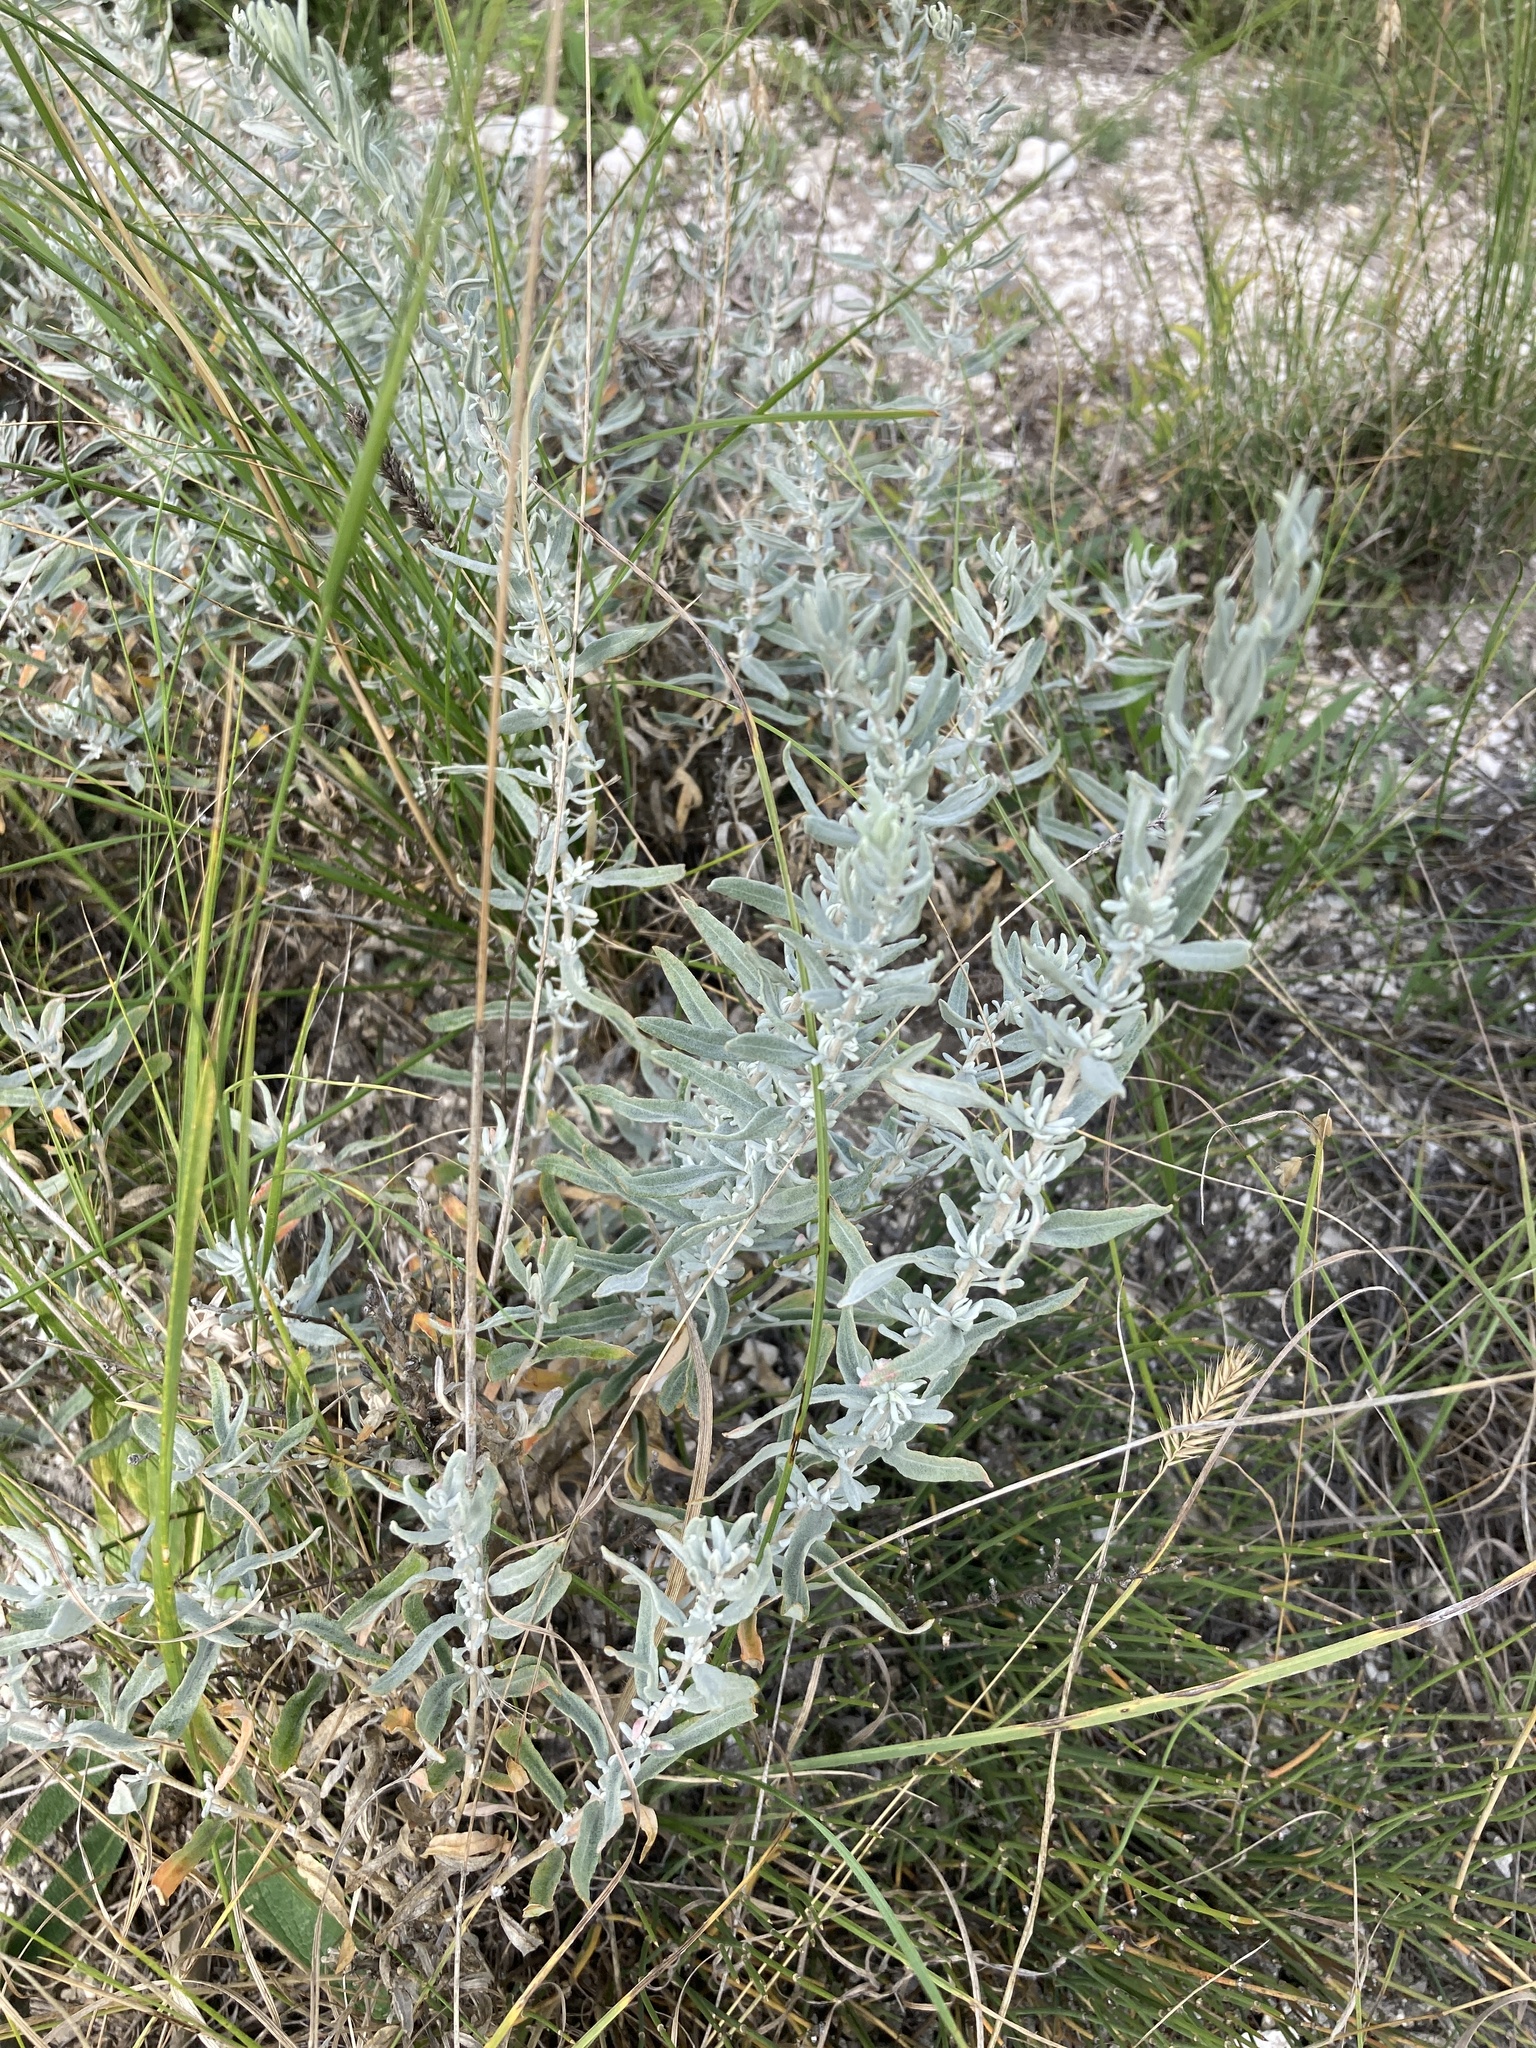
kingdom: Plantae
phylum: Tracheophyta
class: Magnoliopsida
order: Caryophyllales
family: Amaranthaceae
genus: Krascheninnikovia
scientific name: Krascheninnikovia ceratoides
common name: Pamirian winterfat
